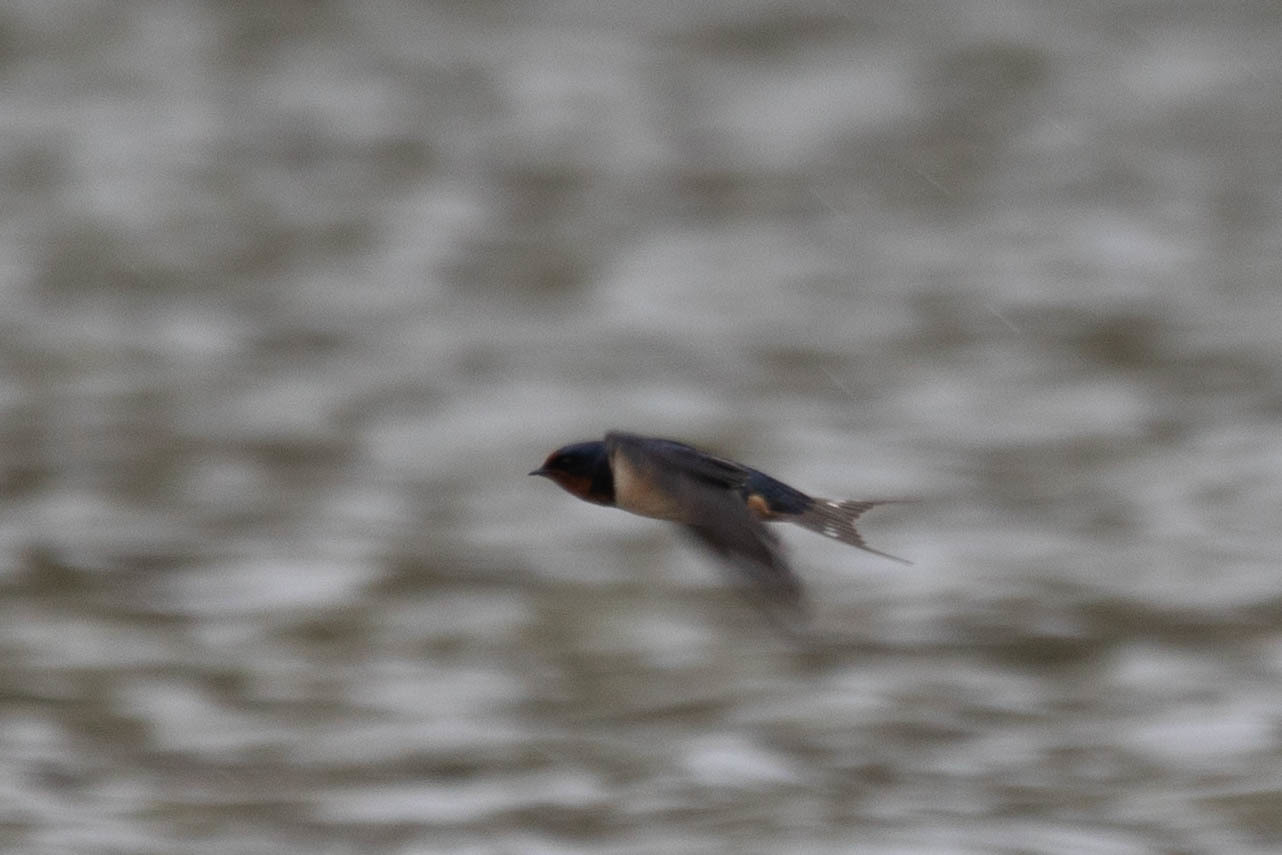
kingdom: Animalia
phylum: Chordata
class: Aves
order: Passeriformes
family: Hirundinidae
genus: Hirundo
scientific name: Hirundo rustica
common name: Barn swallow
